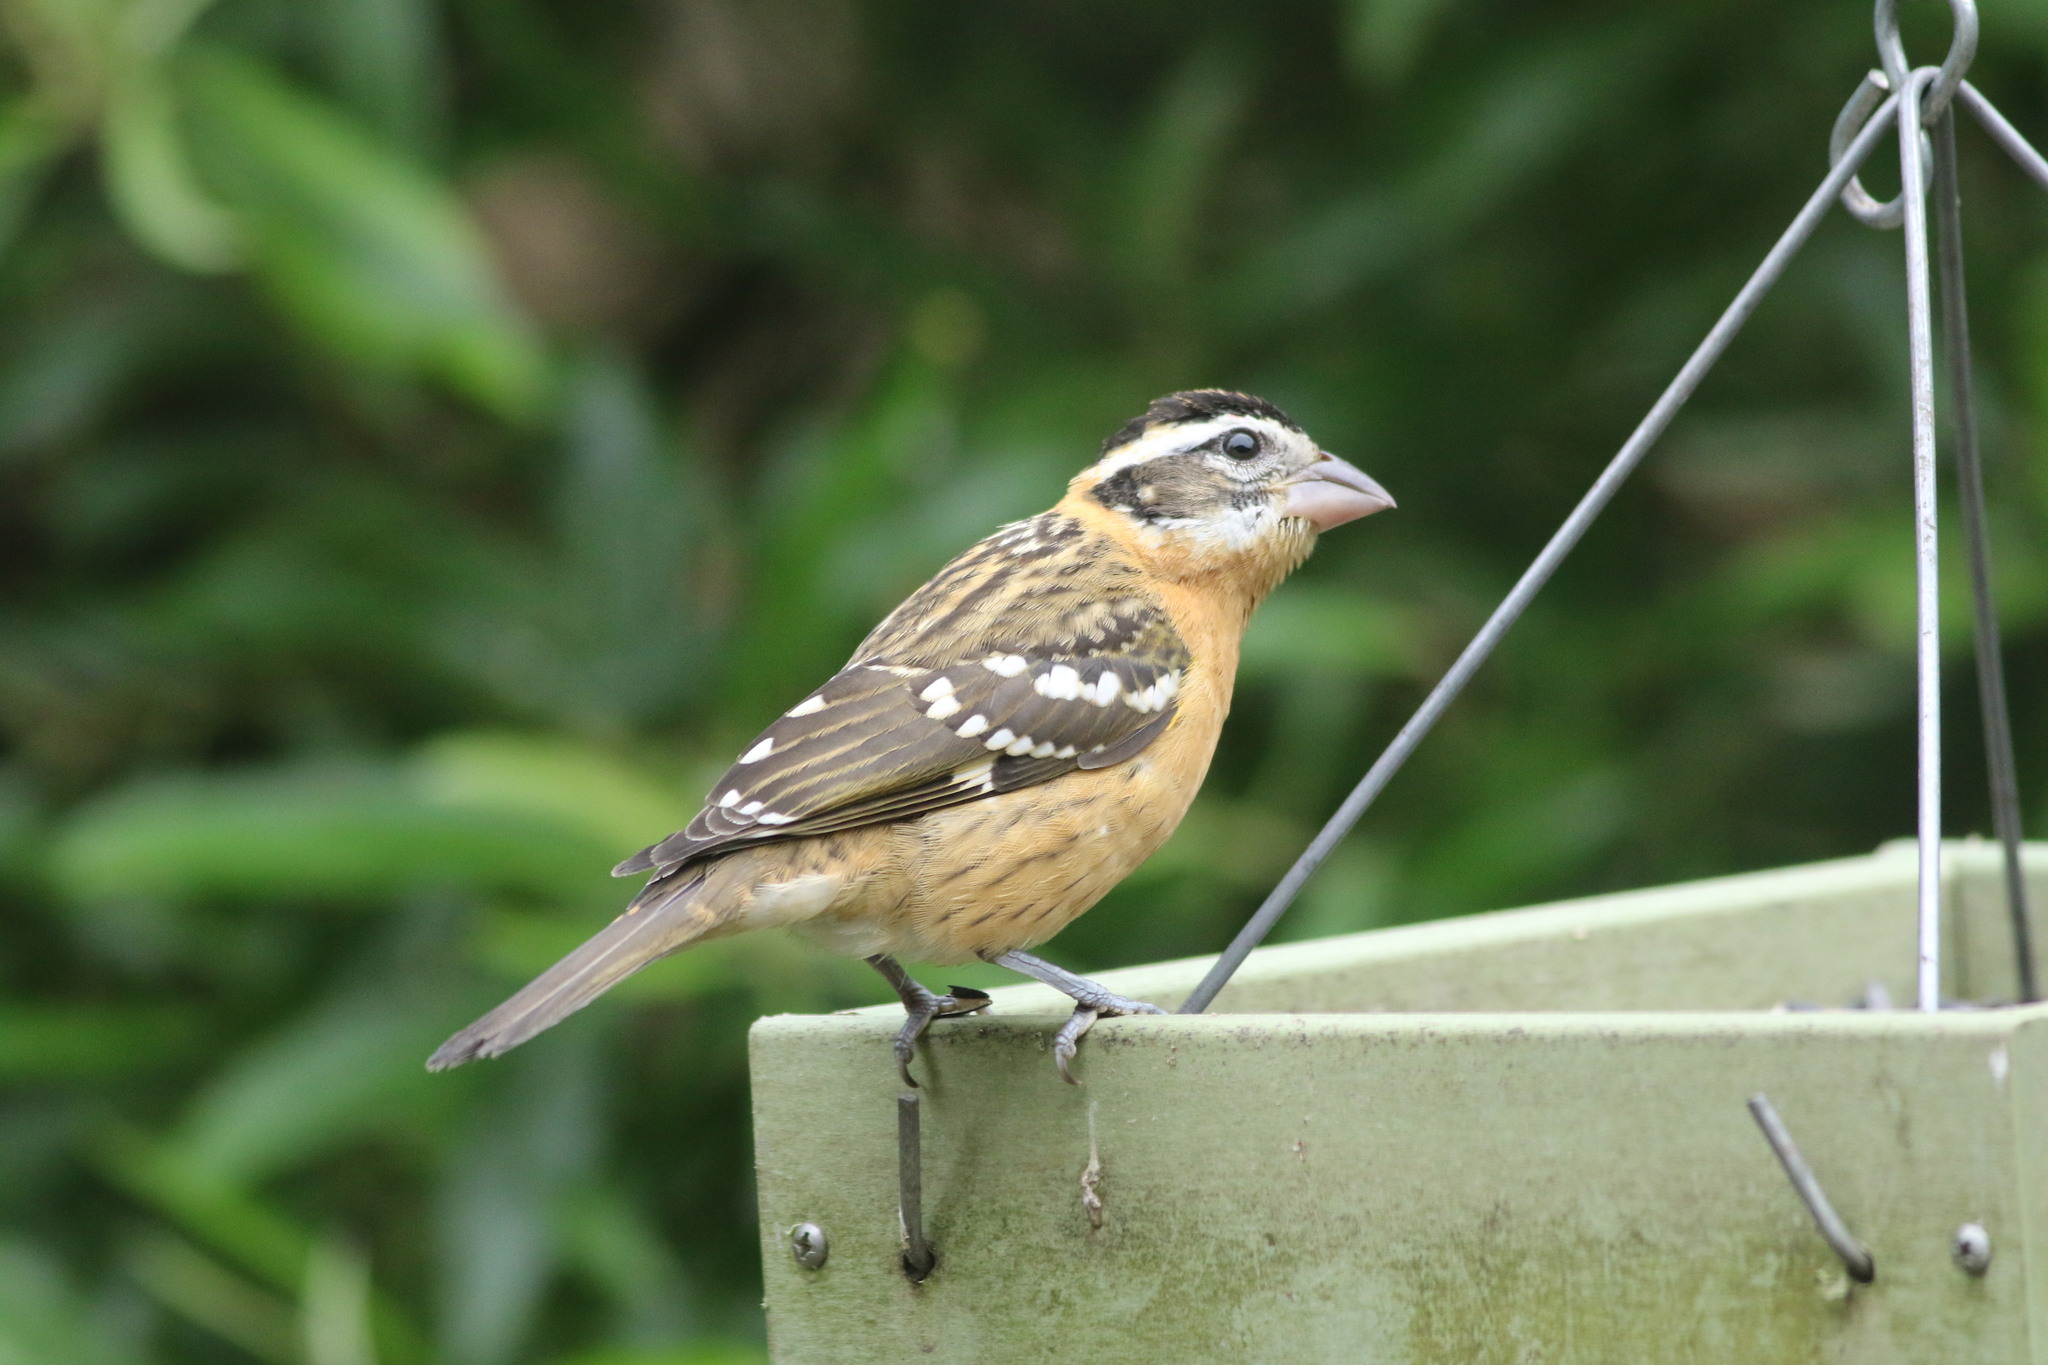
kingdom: Animalia
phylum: Chordata
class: Aves
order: Passeriformes
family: Cardinalidae
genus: Pheucticus
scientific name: Pheucticus melanocephalus
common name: Black-headed grosbeak
